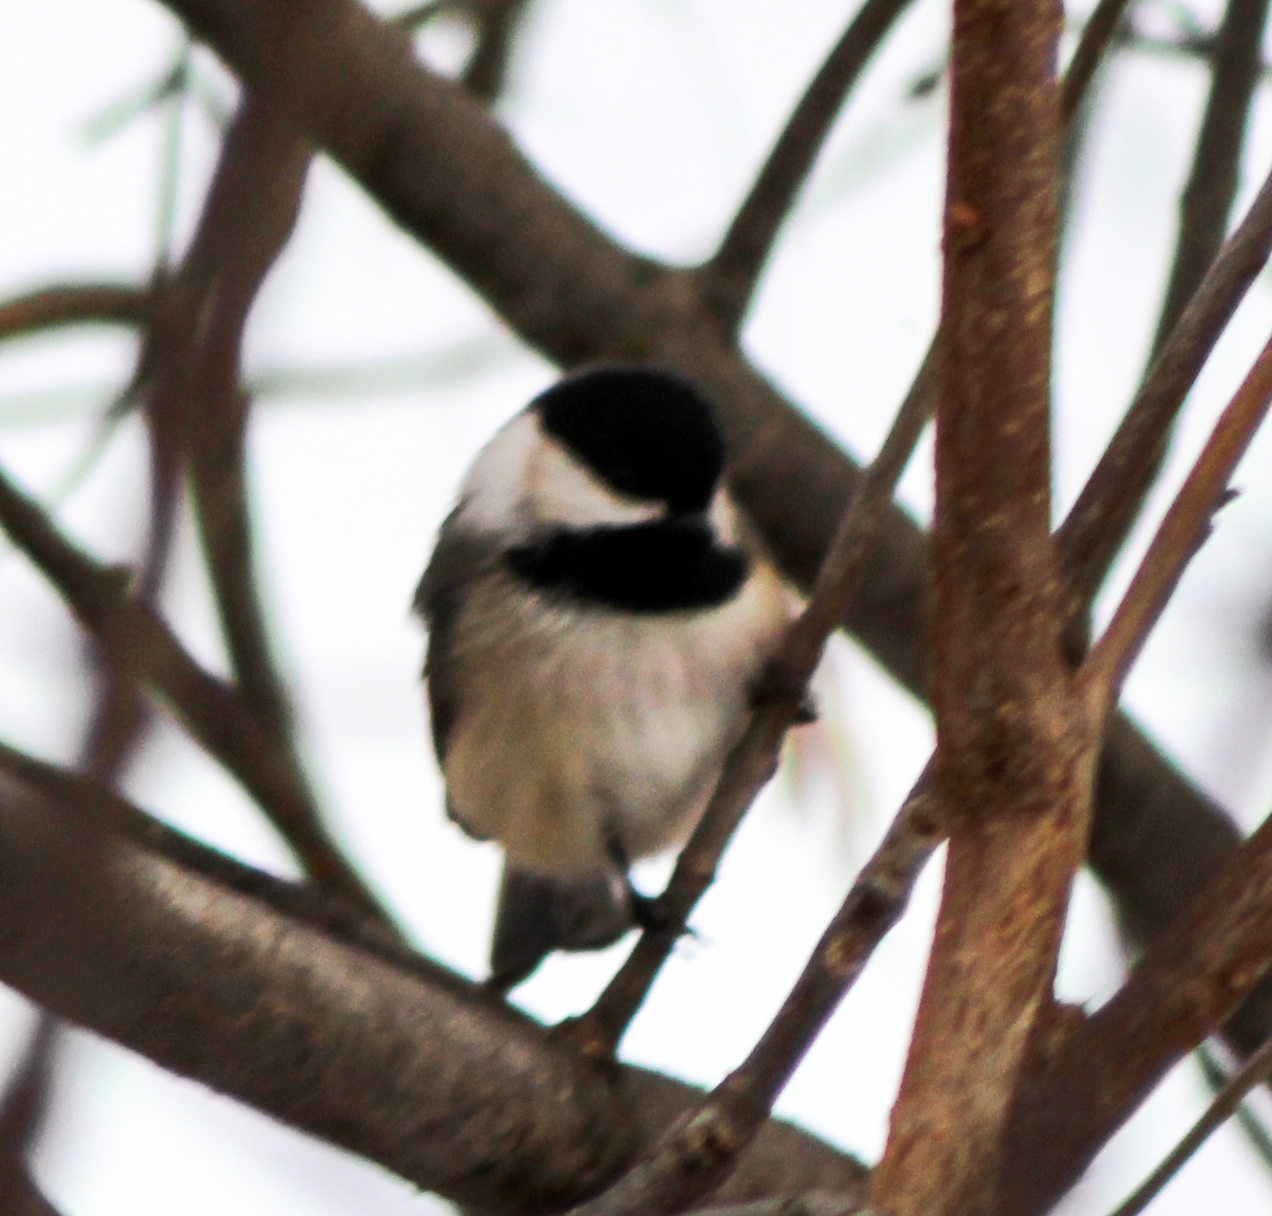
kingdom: Animalia
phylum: Chordata
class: Aves
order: Passeriformes
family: Paridae
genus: Poecile
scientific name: Poecile atricapillus
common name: Black-capped chickadee
